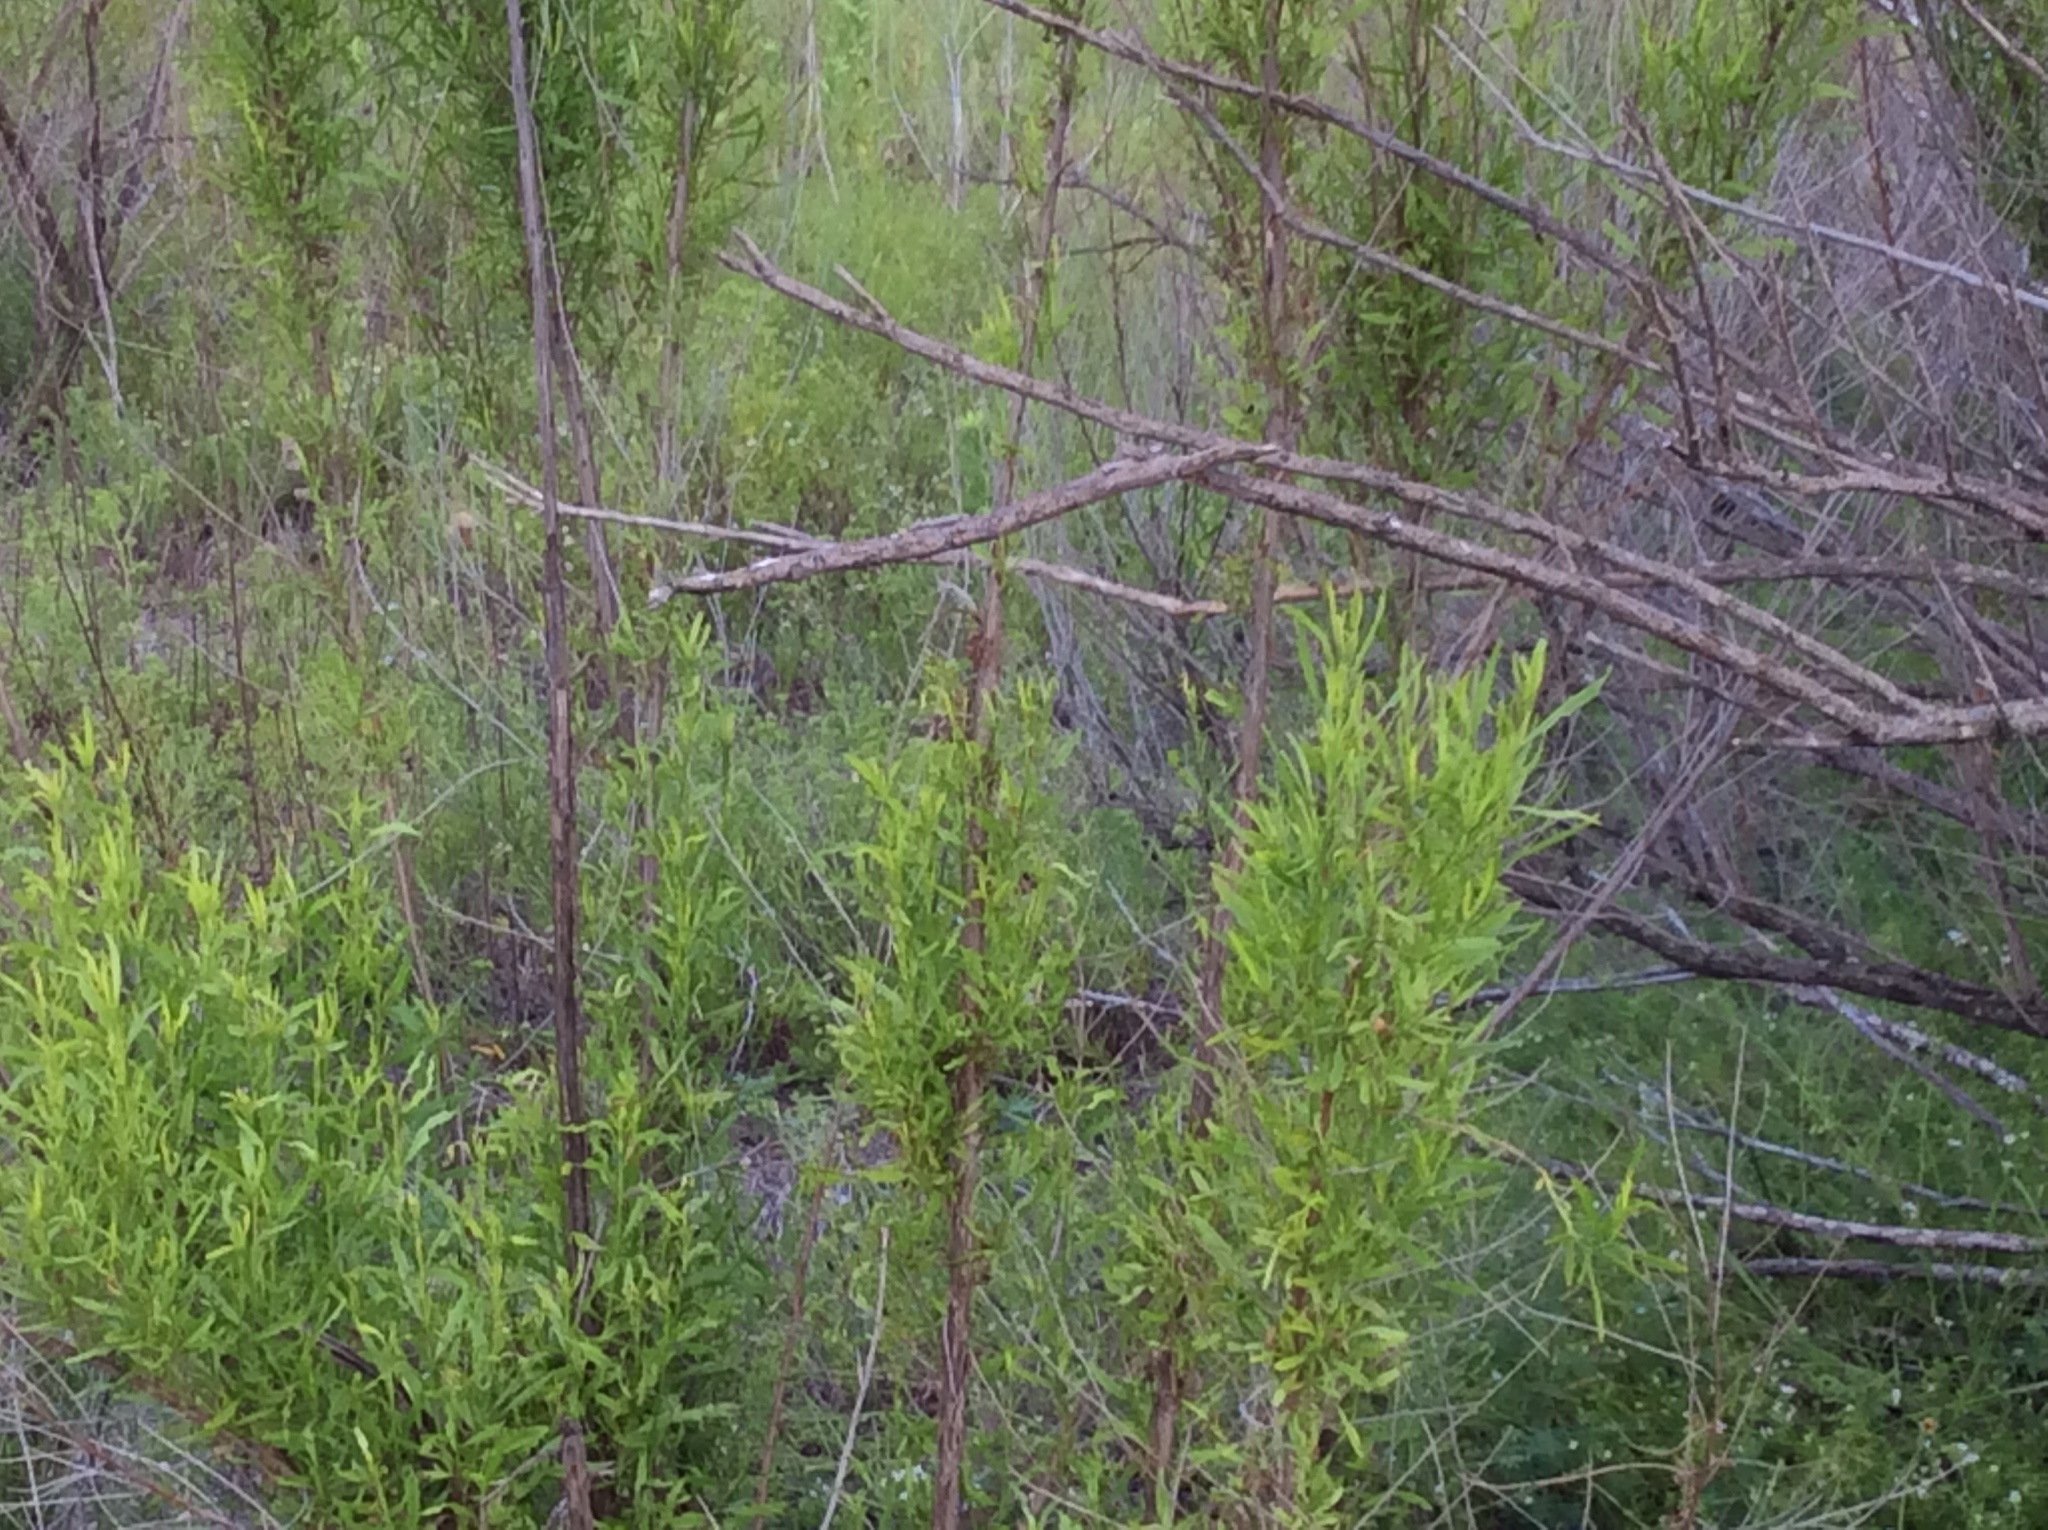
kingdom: Plantae
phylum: Tracheophyta
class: Magnoliopsida
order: Asterales
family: Asteraceae
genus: Baccharis
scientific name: Baccharis neglecta
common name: Roosevelt-weed
